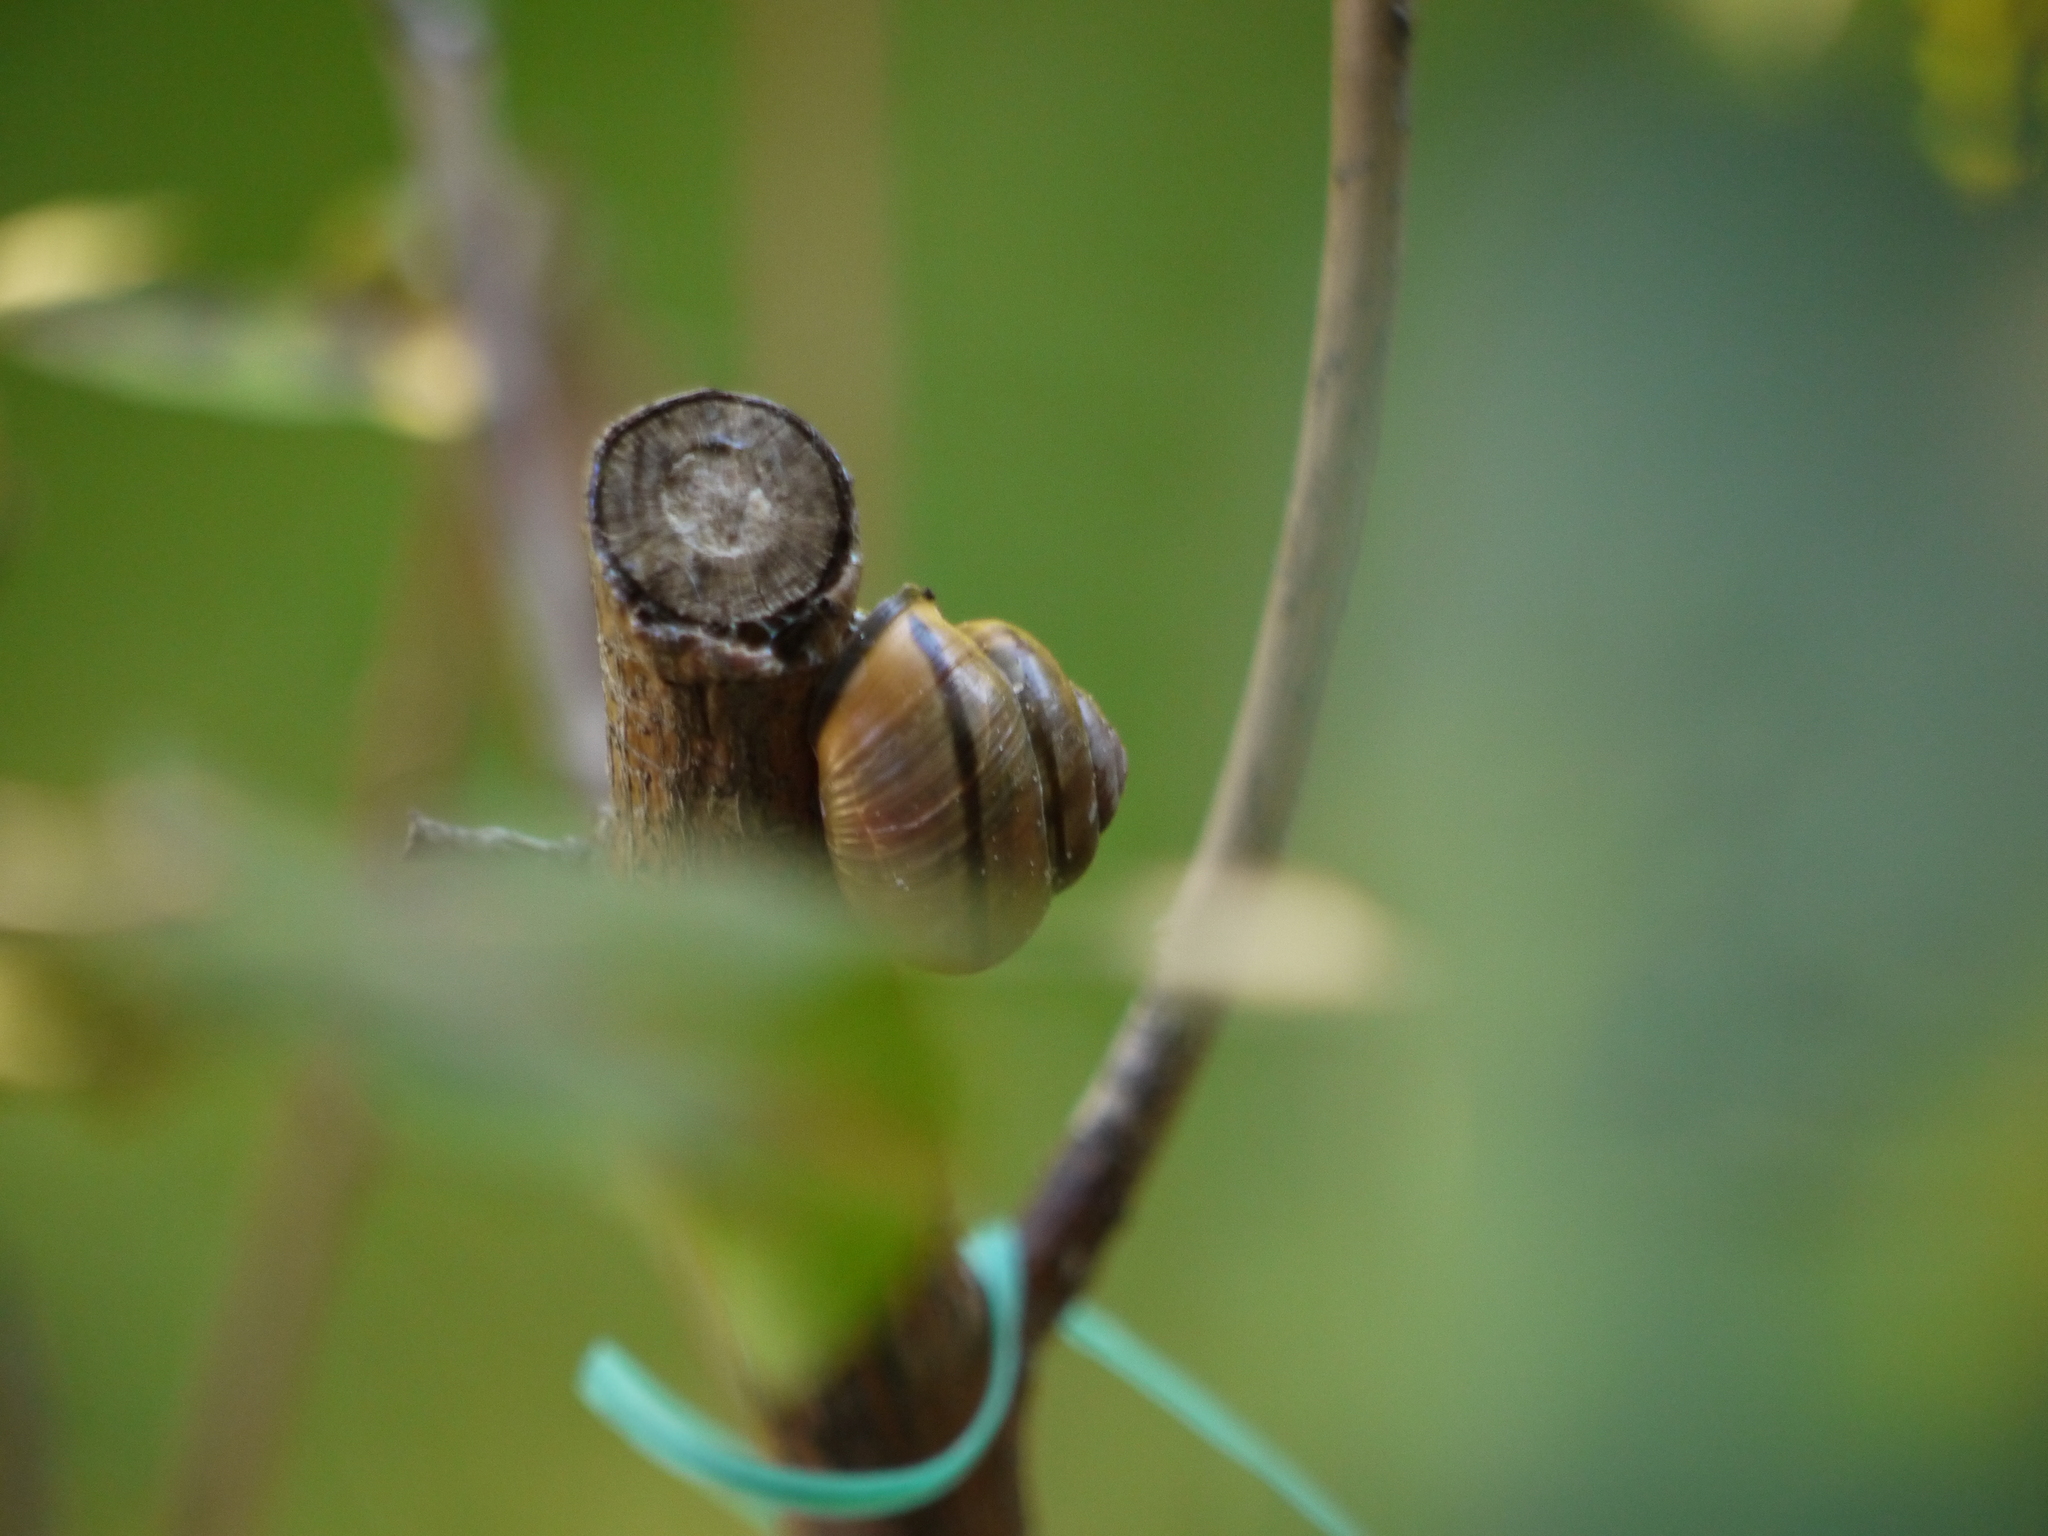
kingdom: Animalia
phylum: Mollusca
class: Gastropoda
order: Stylommatophora
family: Helicidae
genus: Cepaea
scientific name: Cepaea nemoralis
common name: Grovesnail
